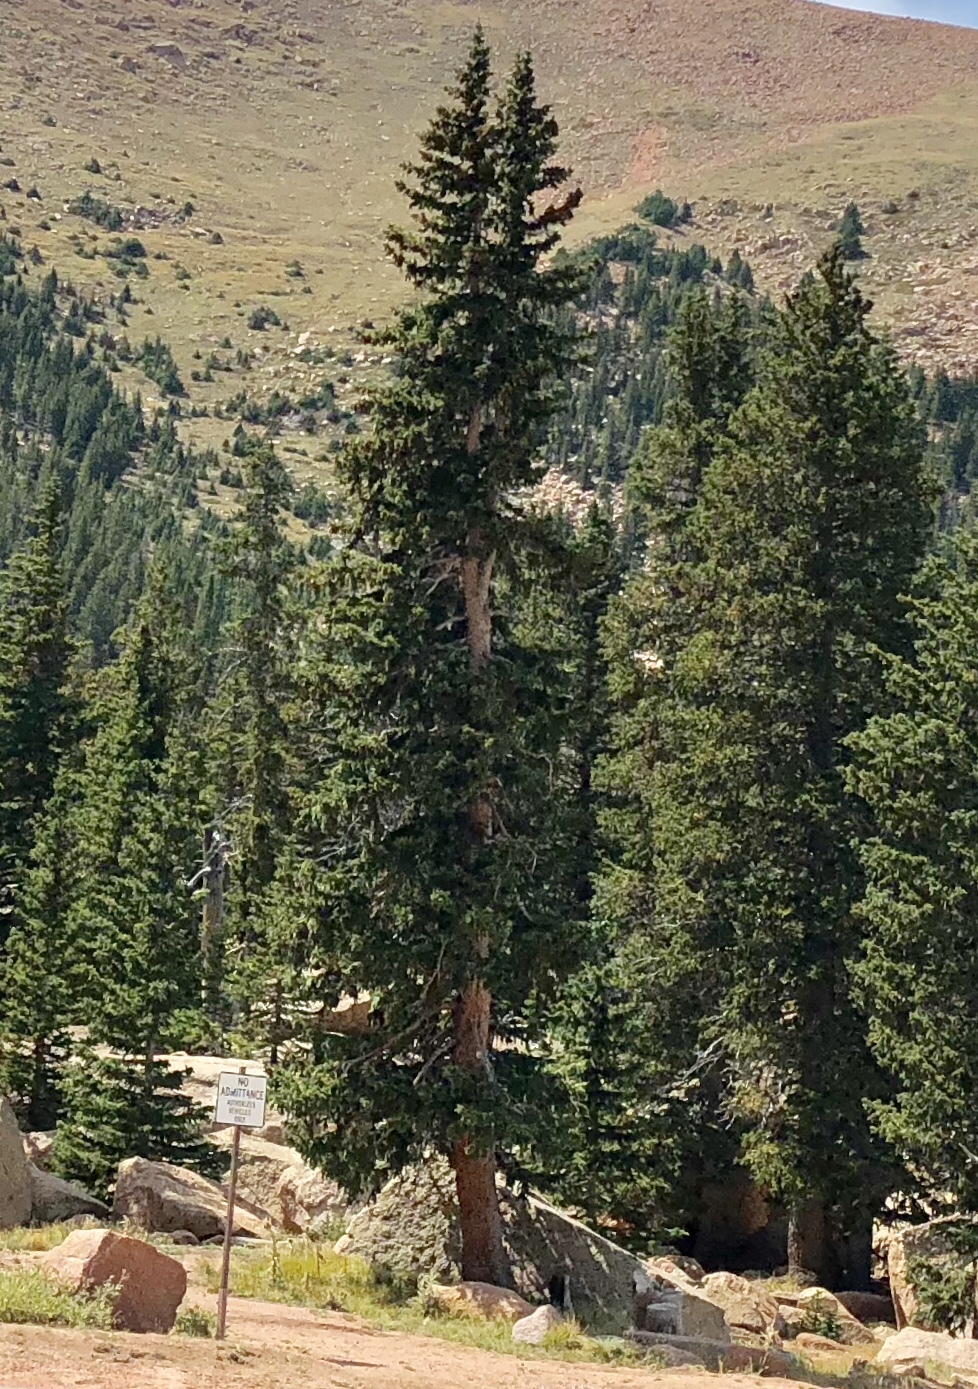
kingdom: Plantae
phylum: Tracheophyta
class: Pinopsida
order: Pinales
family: Pinaceae
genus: Picea
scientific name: Picea engelmannii
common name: Engelmann spruce
